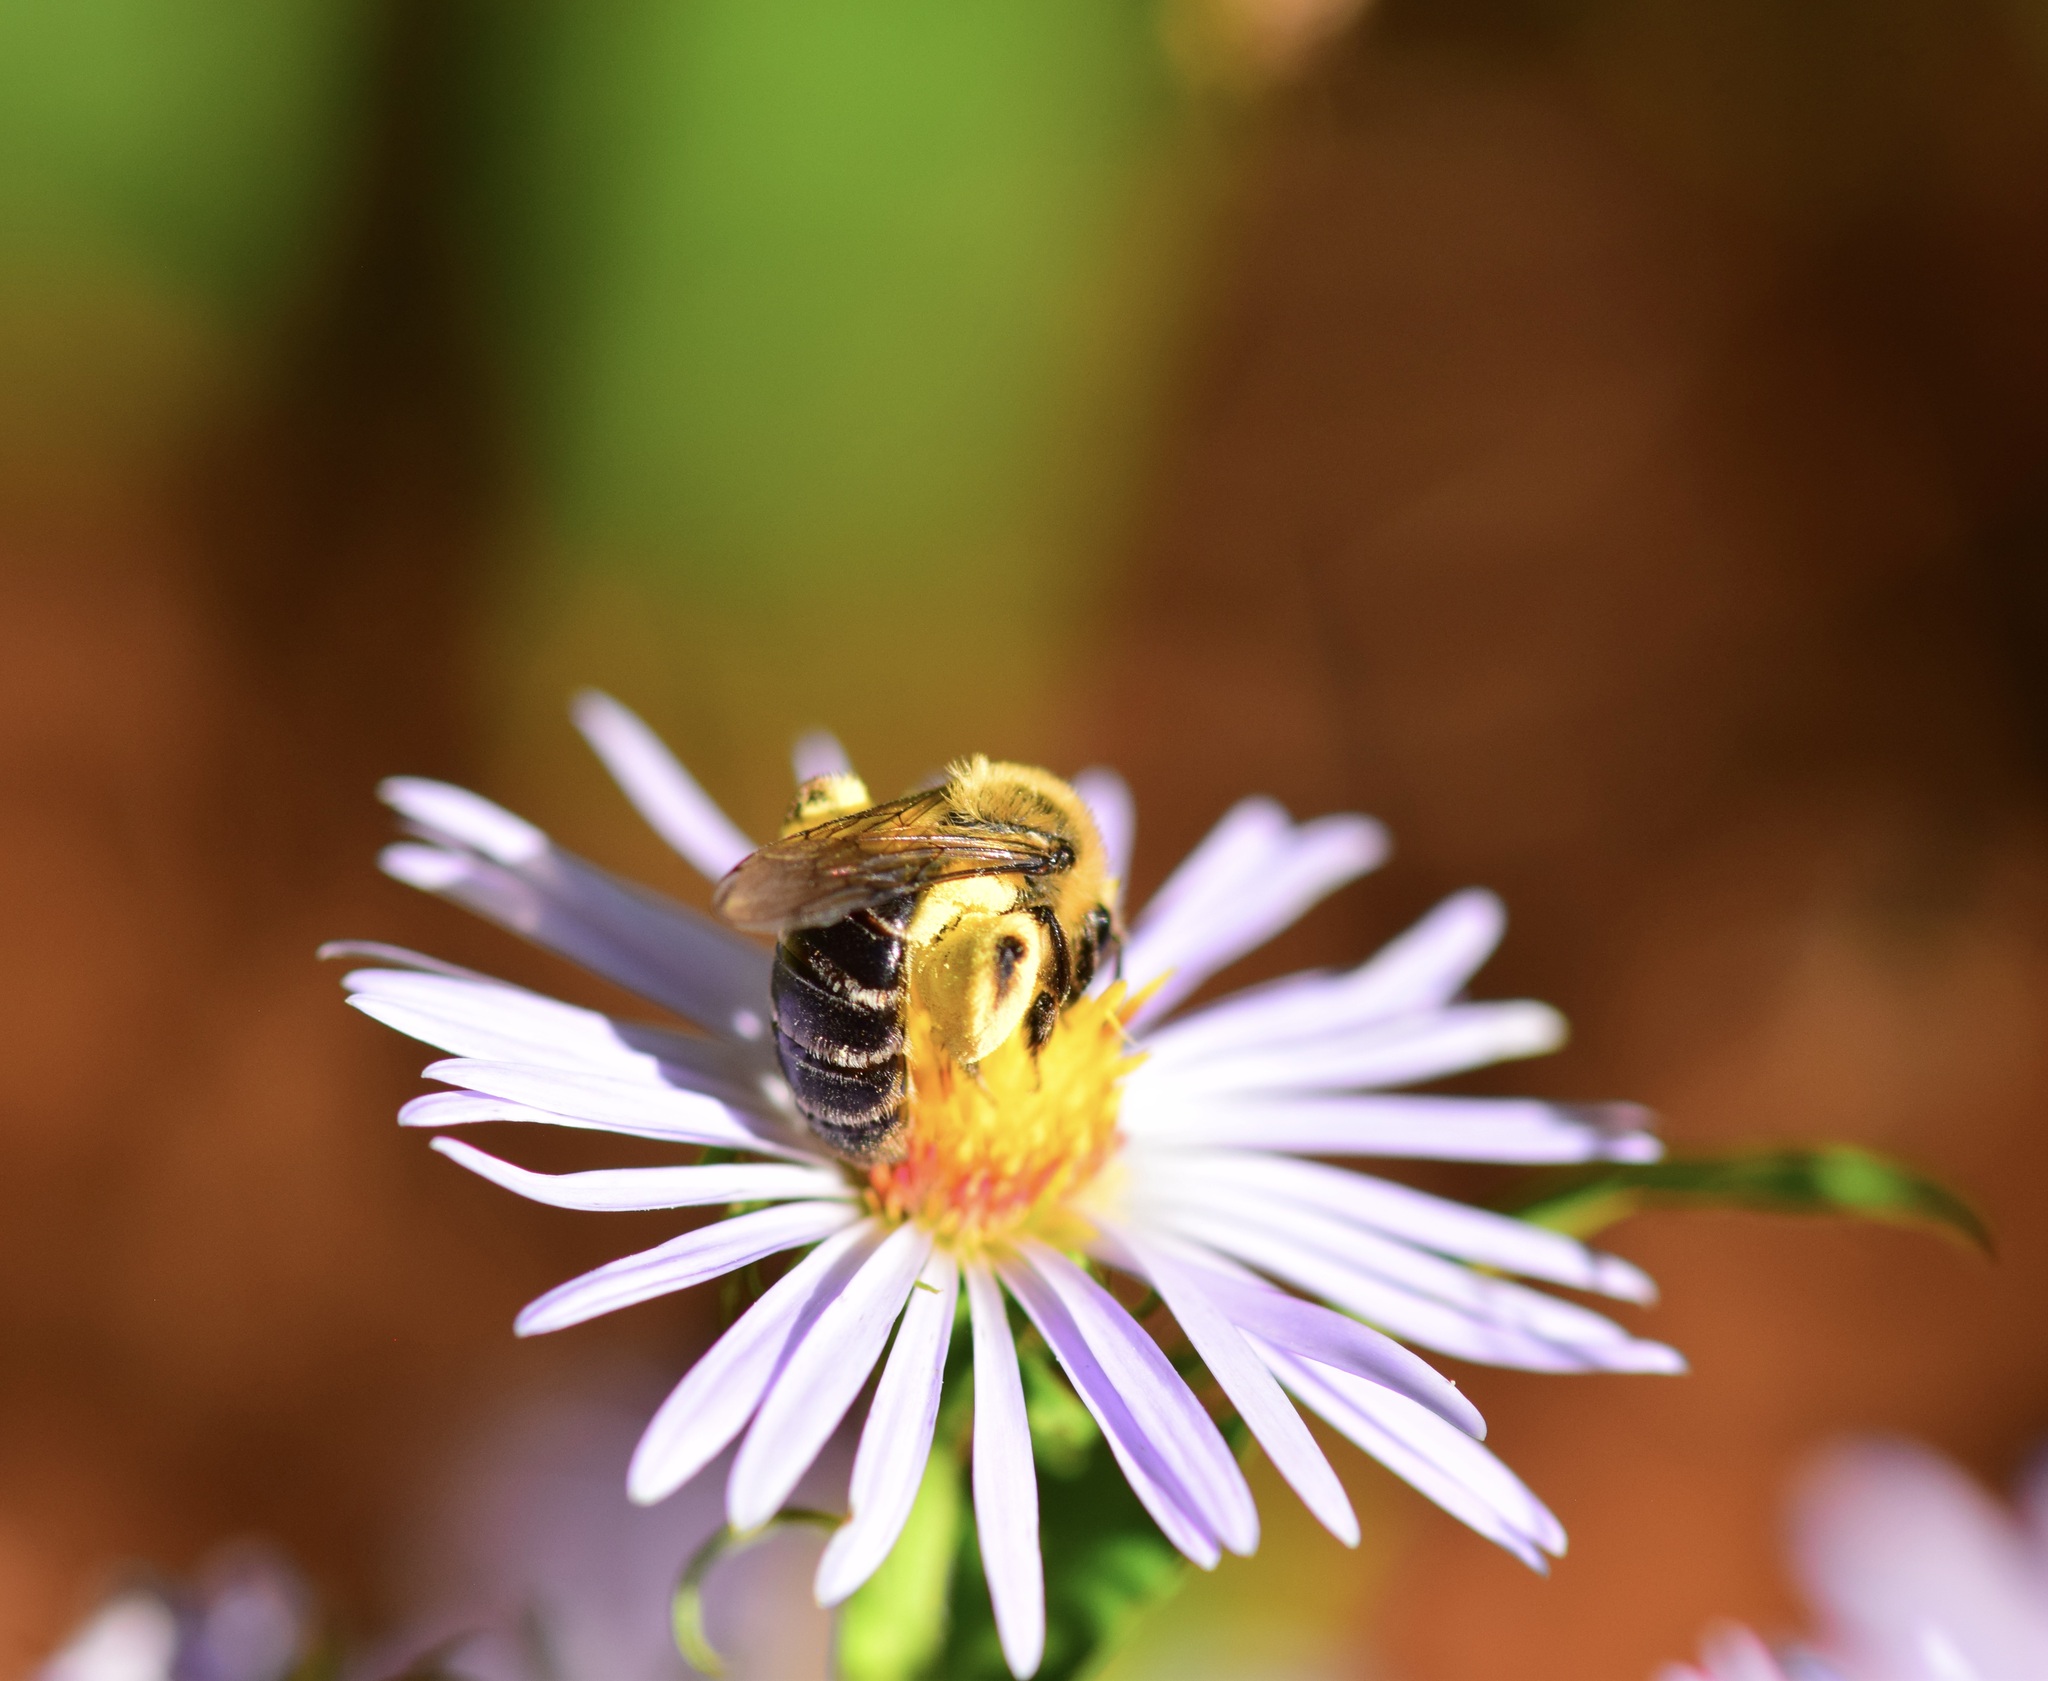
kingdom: Animalia
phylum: Arthropoda
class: Insecta
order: Hymenoptera
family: Andrenidae
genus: Andrena
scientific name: Andrena asteris
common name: Aster mining bee
